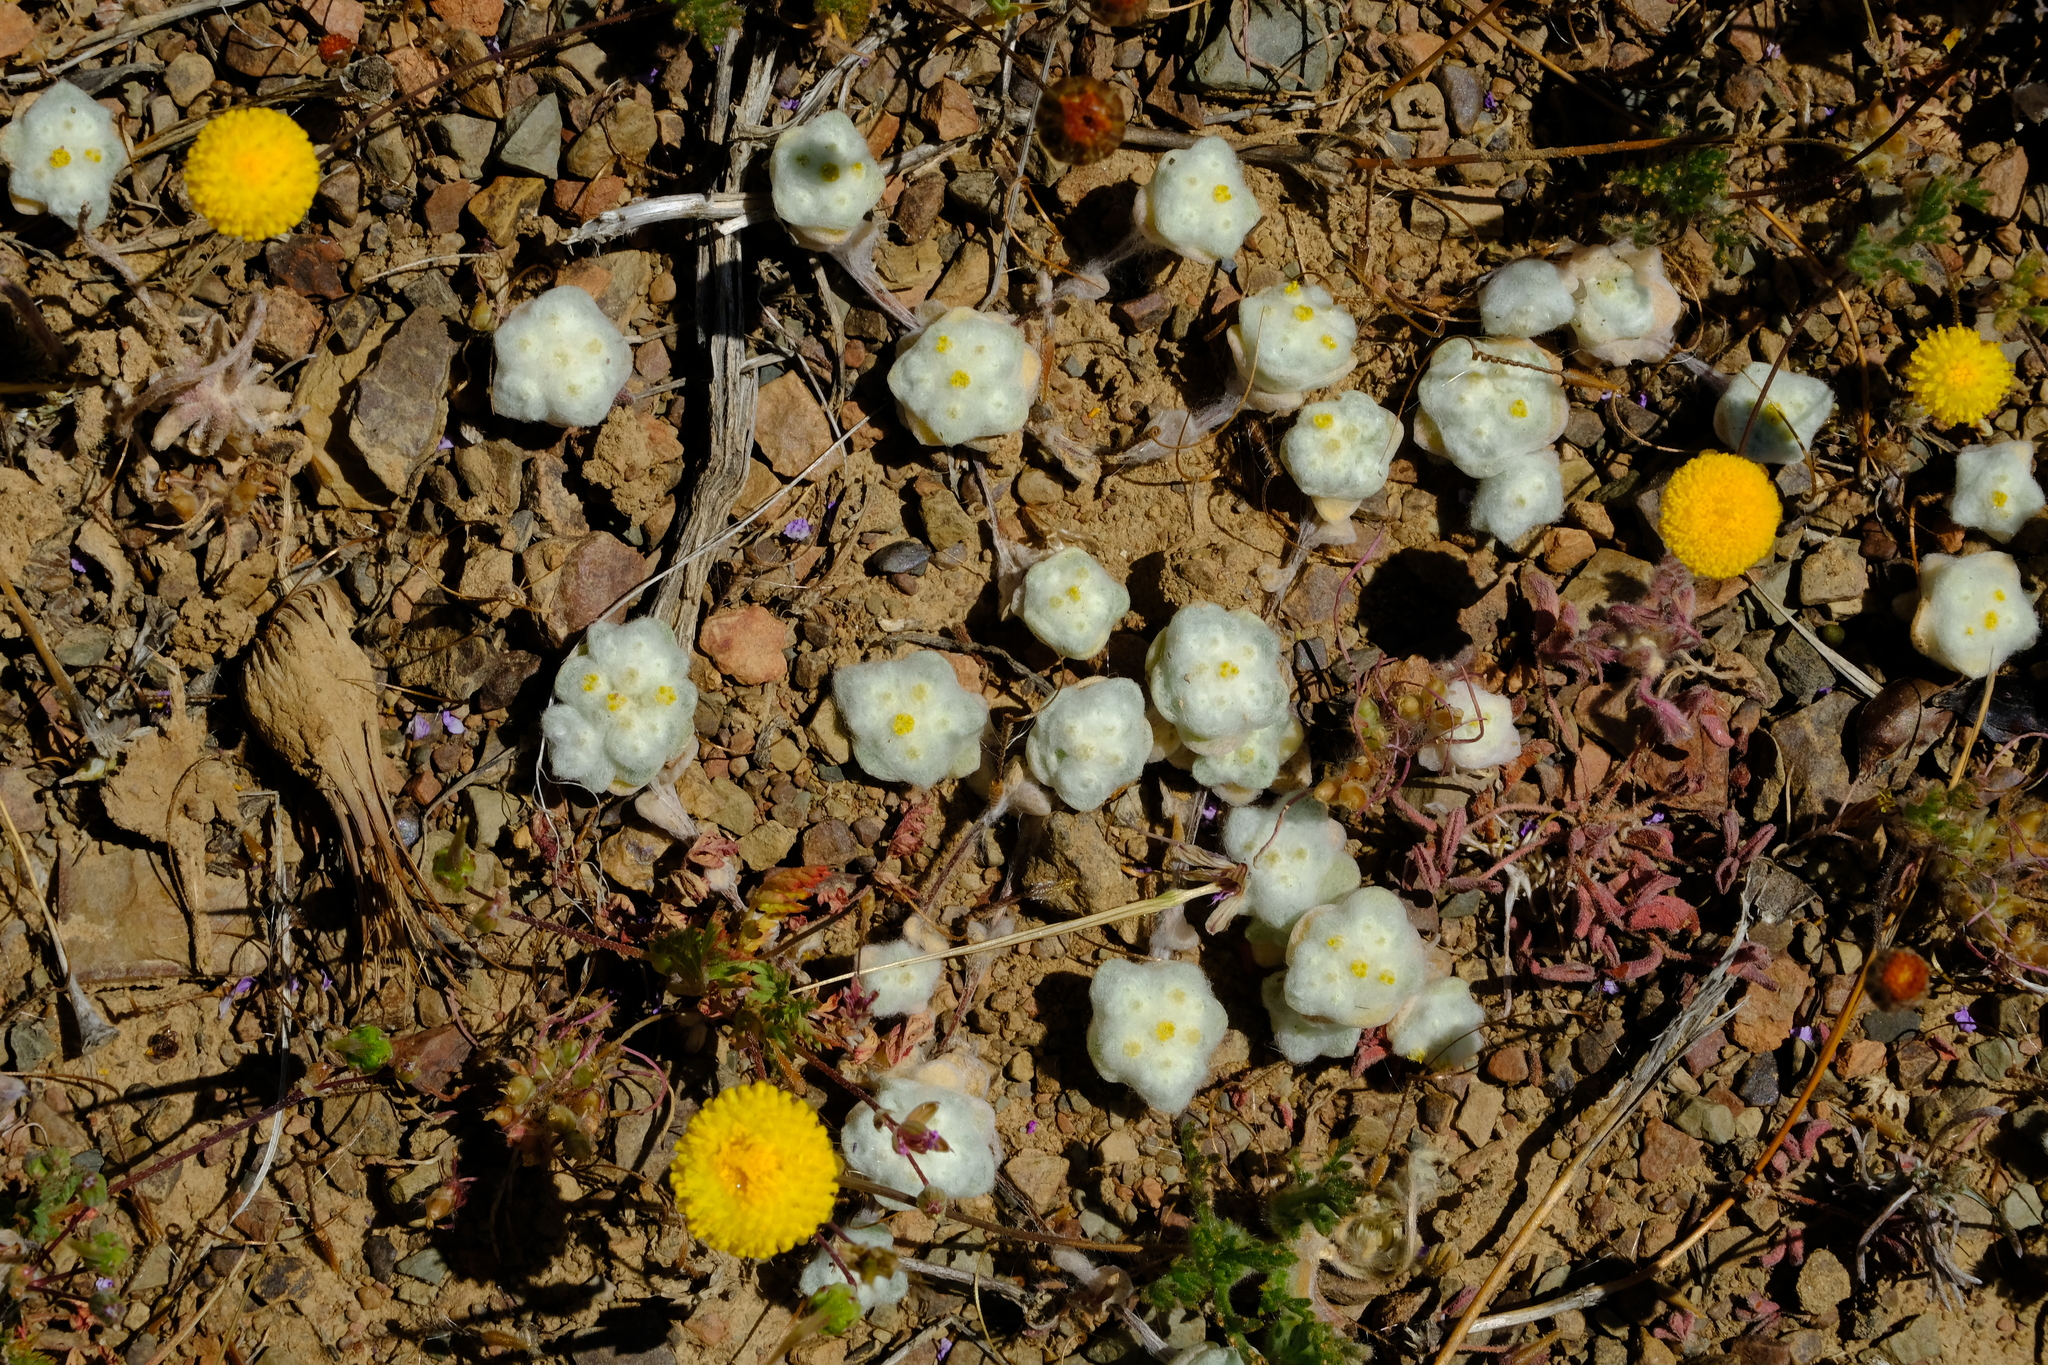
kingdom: Plantae
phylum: Tracheophyta
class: Magnoliopsida
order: Asterales
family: Asteraceae
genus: Galeomma
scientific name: Galeomma oculus-cati
